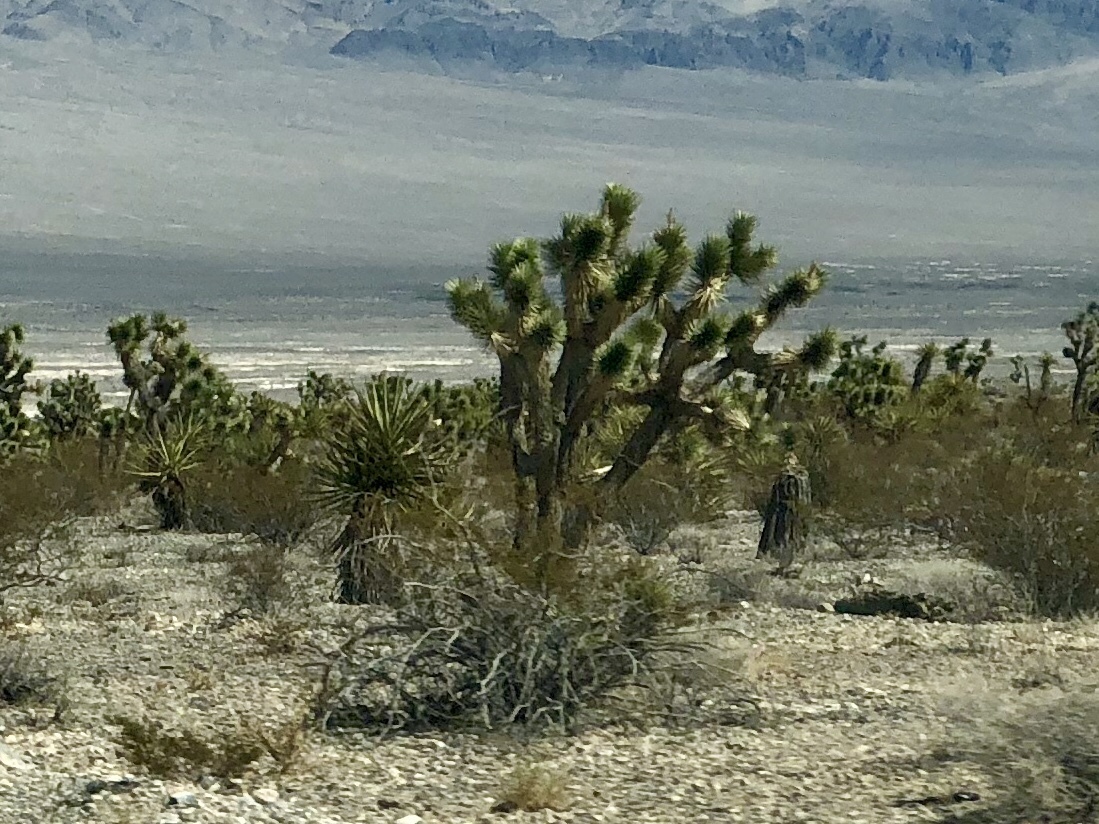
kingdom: Plantae
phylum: Tracheophyta
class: Liliopsida
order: Asparagales
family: Asparagaceae
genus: Yucca
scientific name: Yucca brevifolia
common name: Joshua tree
